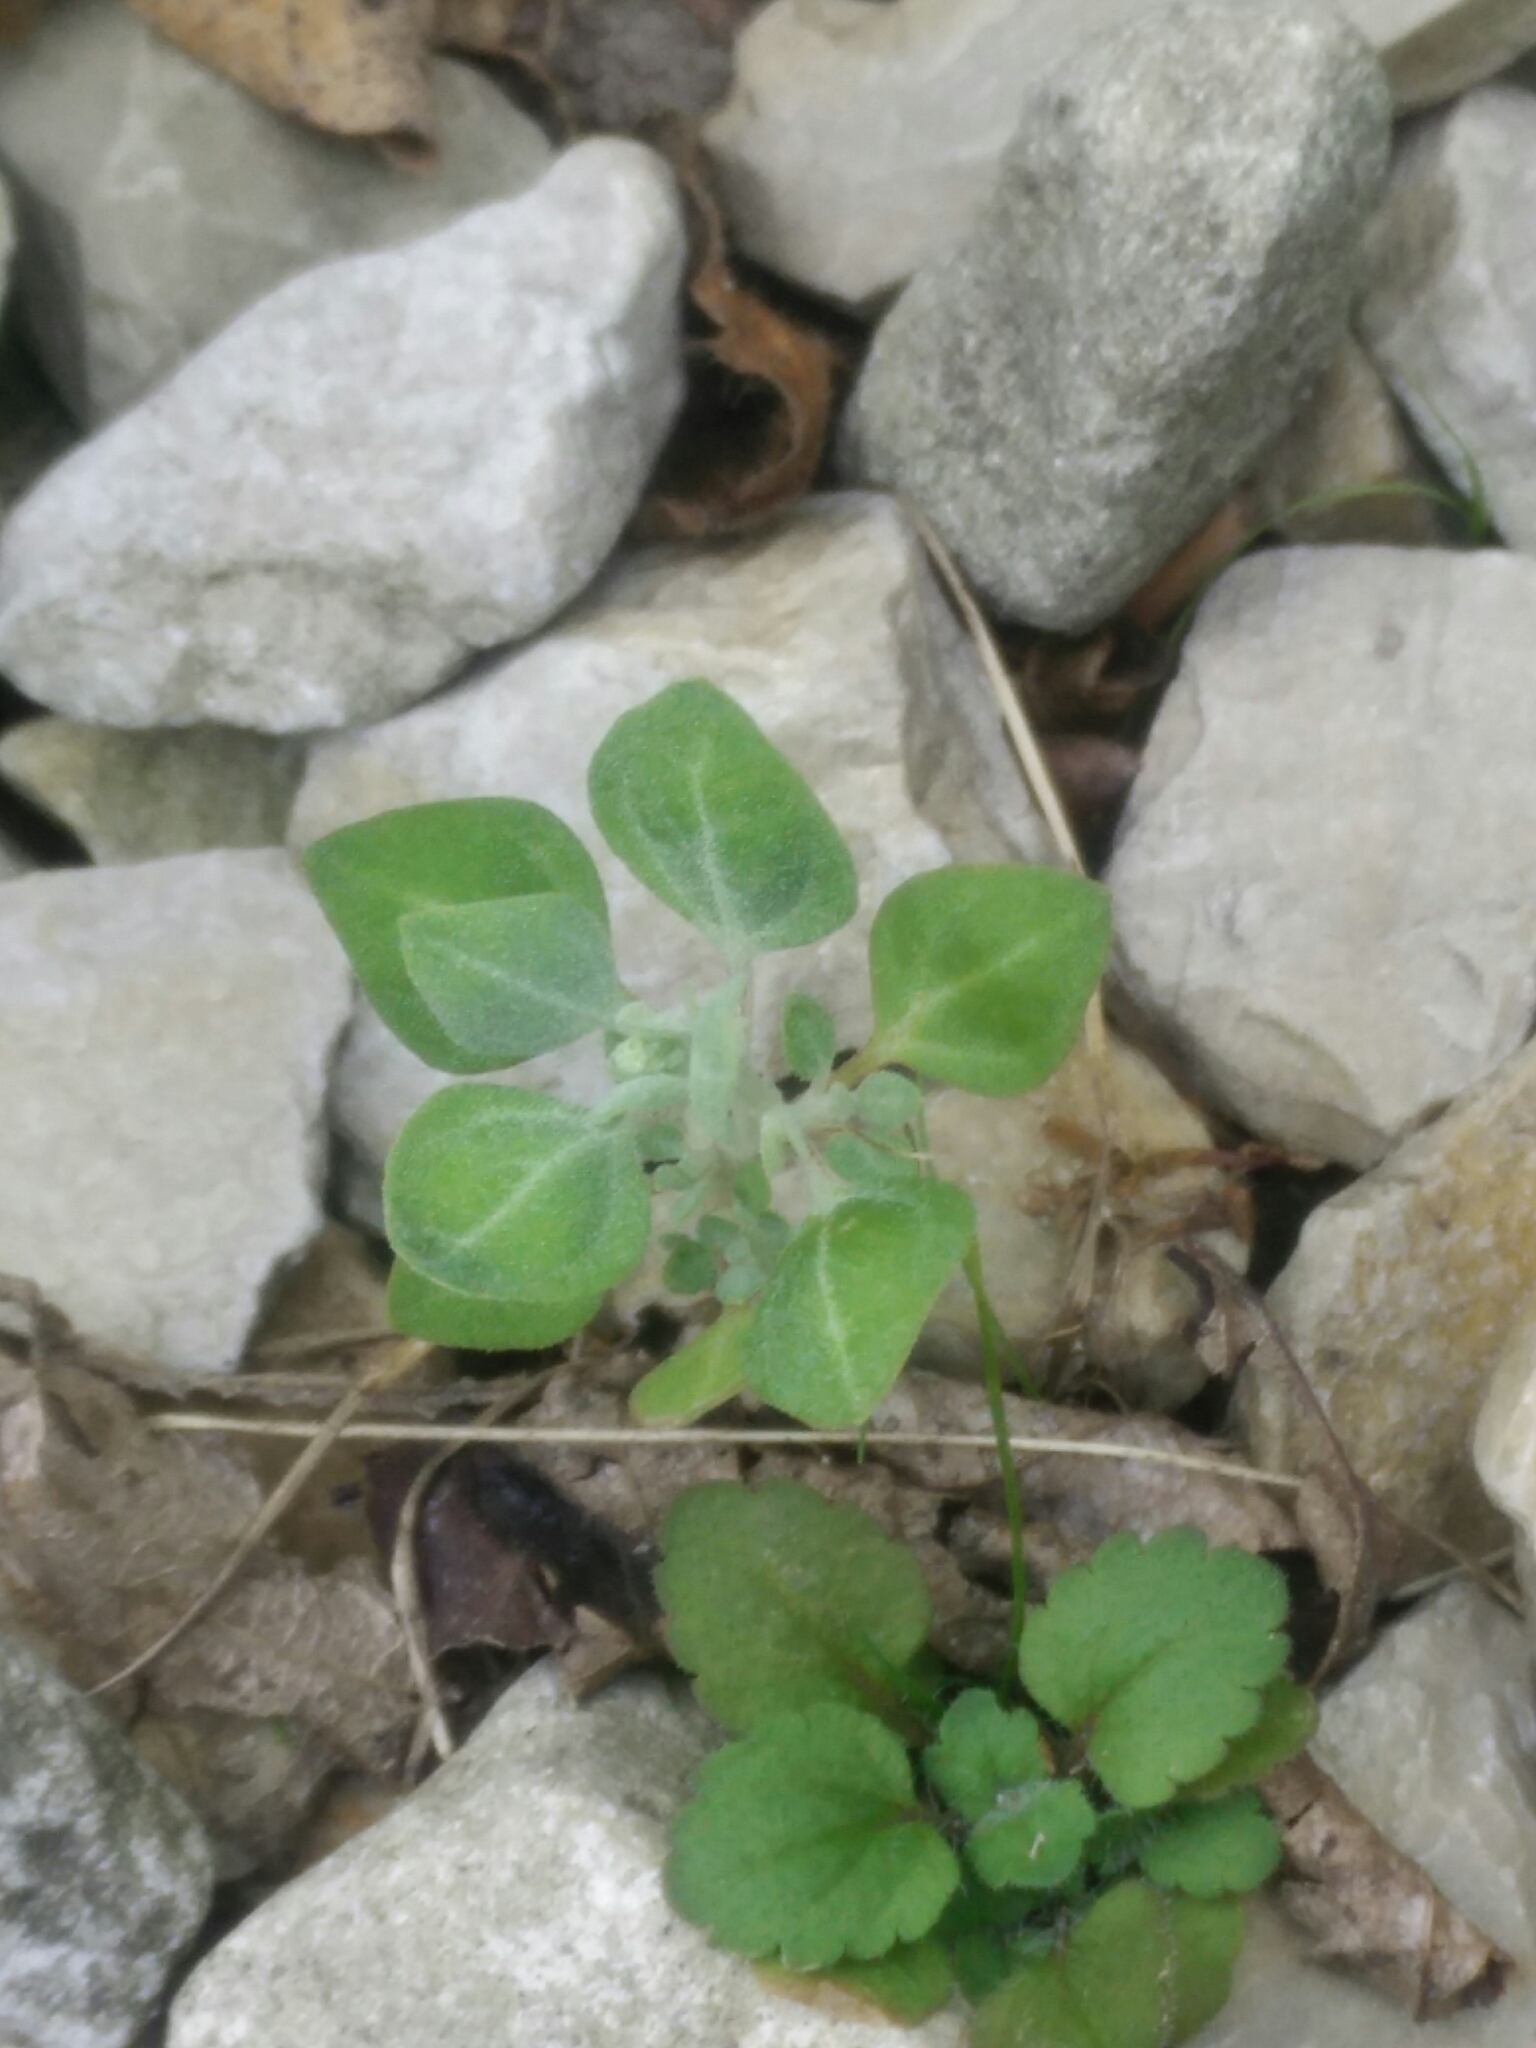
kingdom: Plantae
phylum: Tracheophyta
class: Magnoliopsida
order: Caryophyllales
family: Amaranthaceae
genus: Chenopodium
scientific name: Chenopodium vulvaria
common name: Stinking goosefoot
